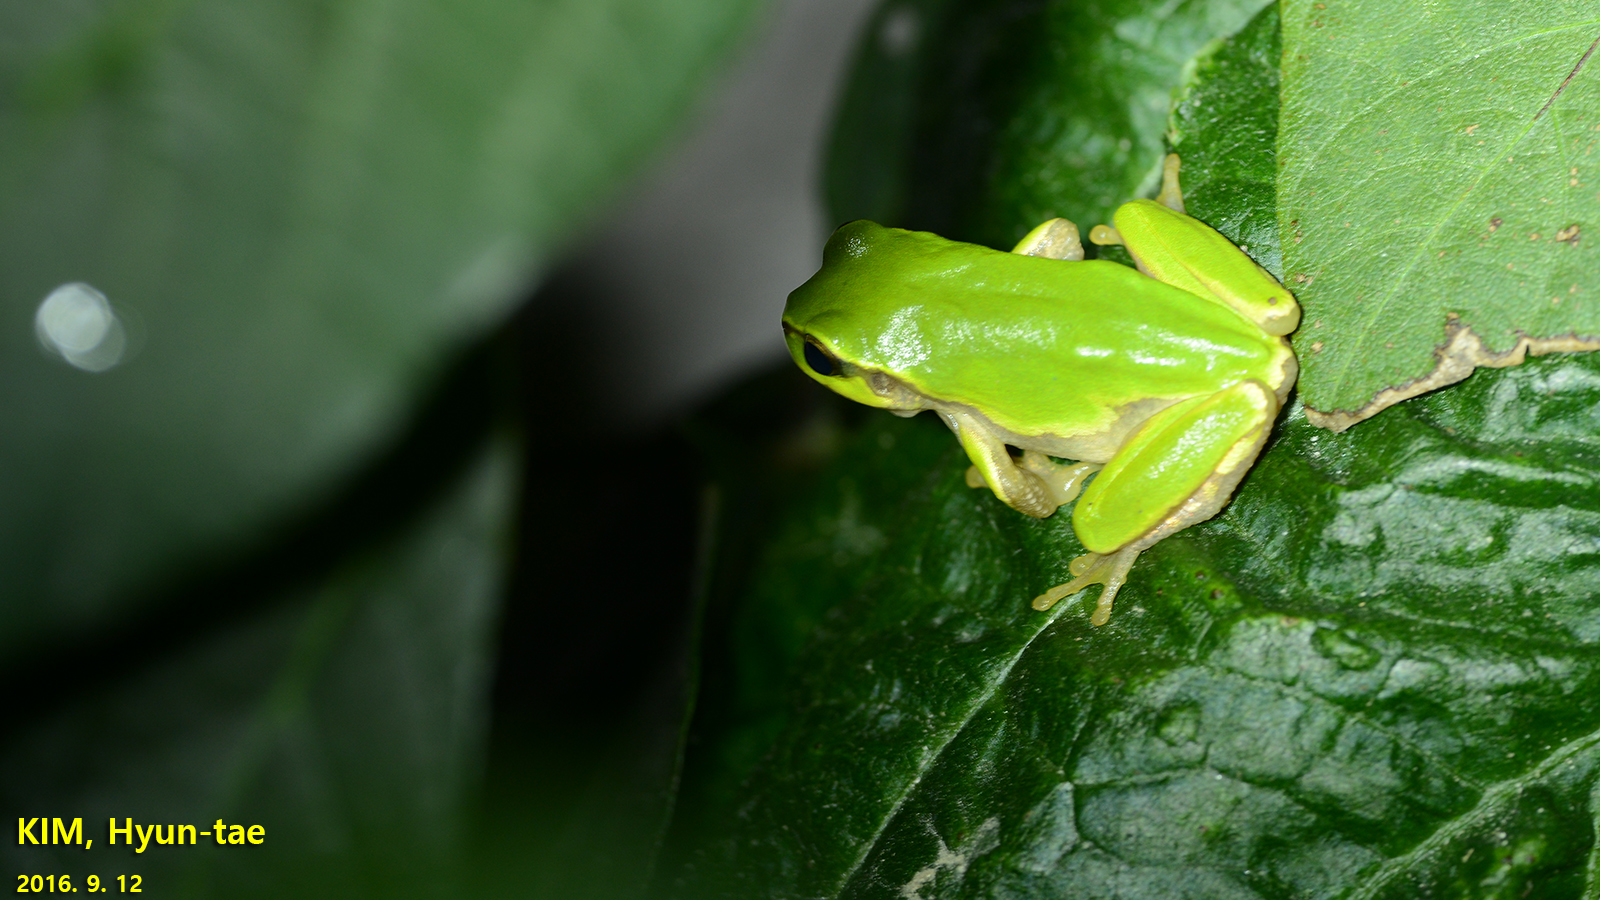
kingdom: Animalia
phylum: Chordata
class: Amphibia
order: Anura
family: Hylidae
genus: Dryophytes
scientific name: Dryophytes japonicus
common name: Japanese treefrog
